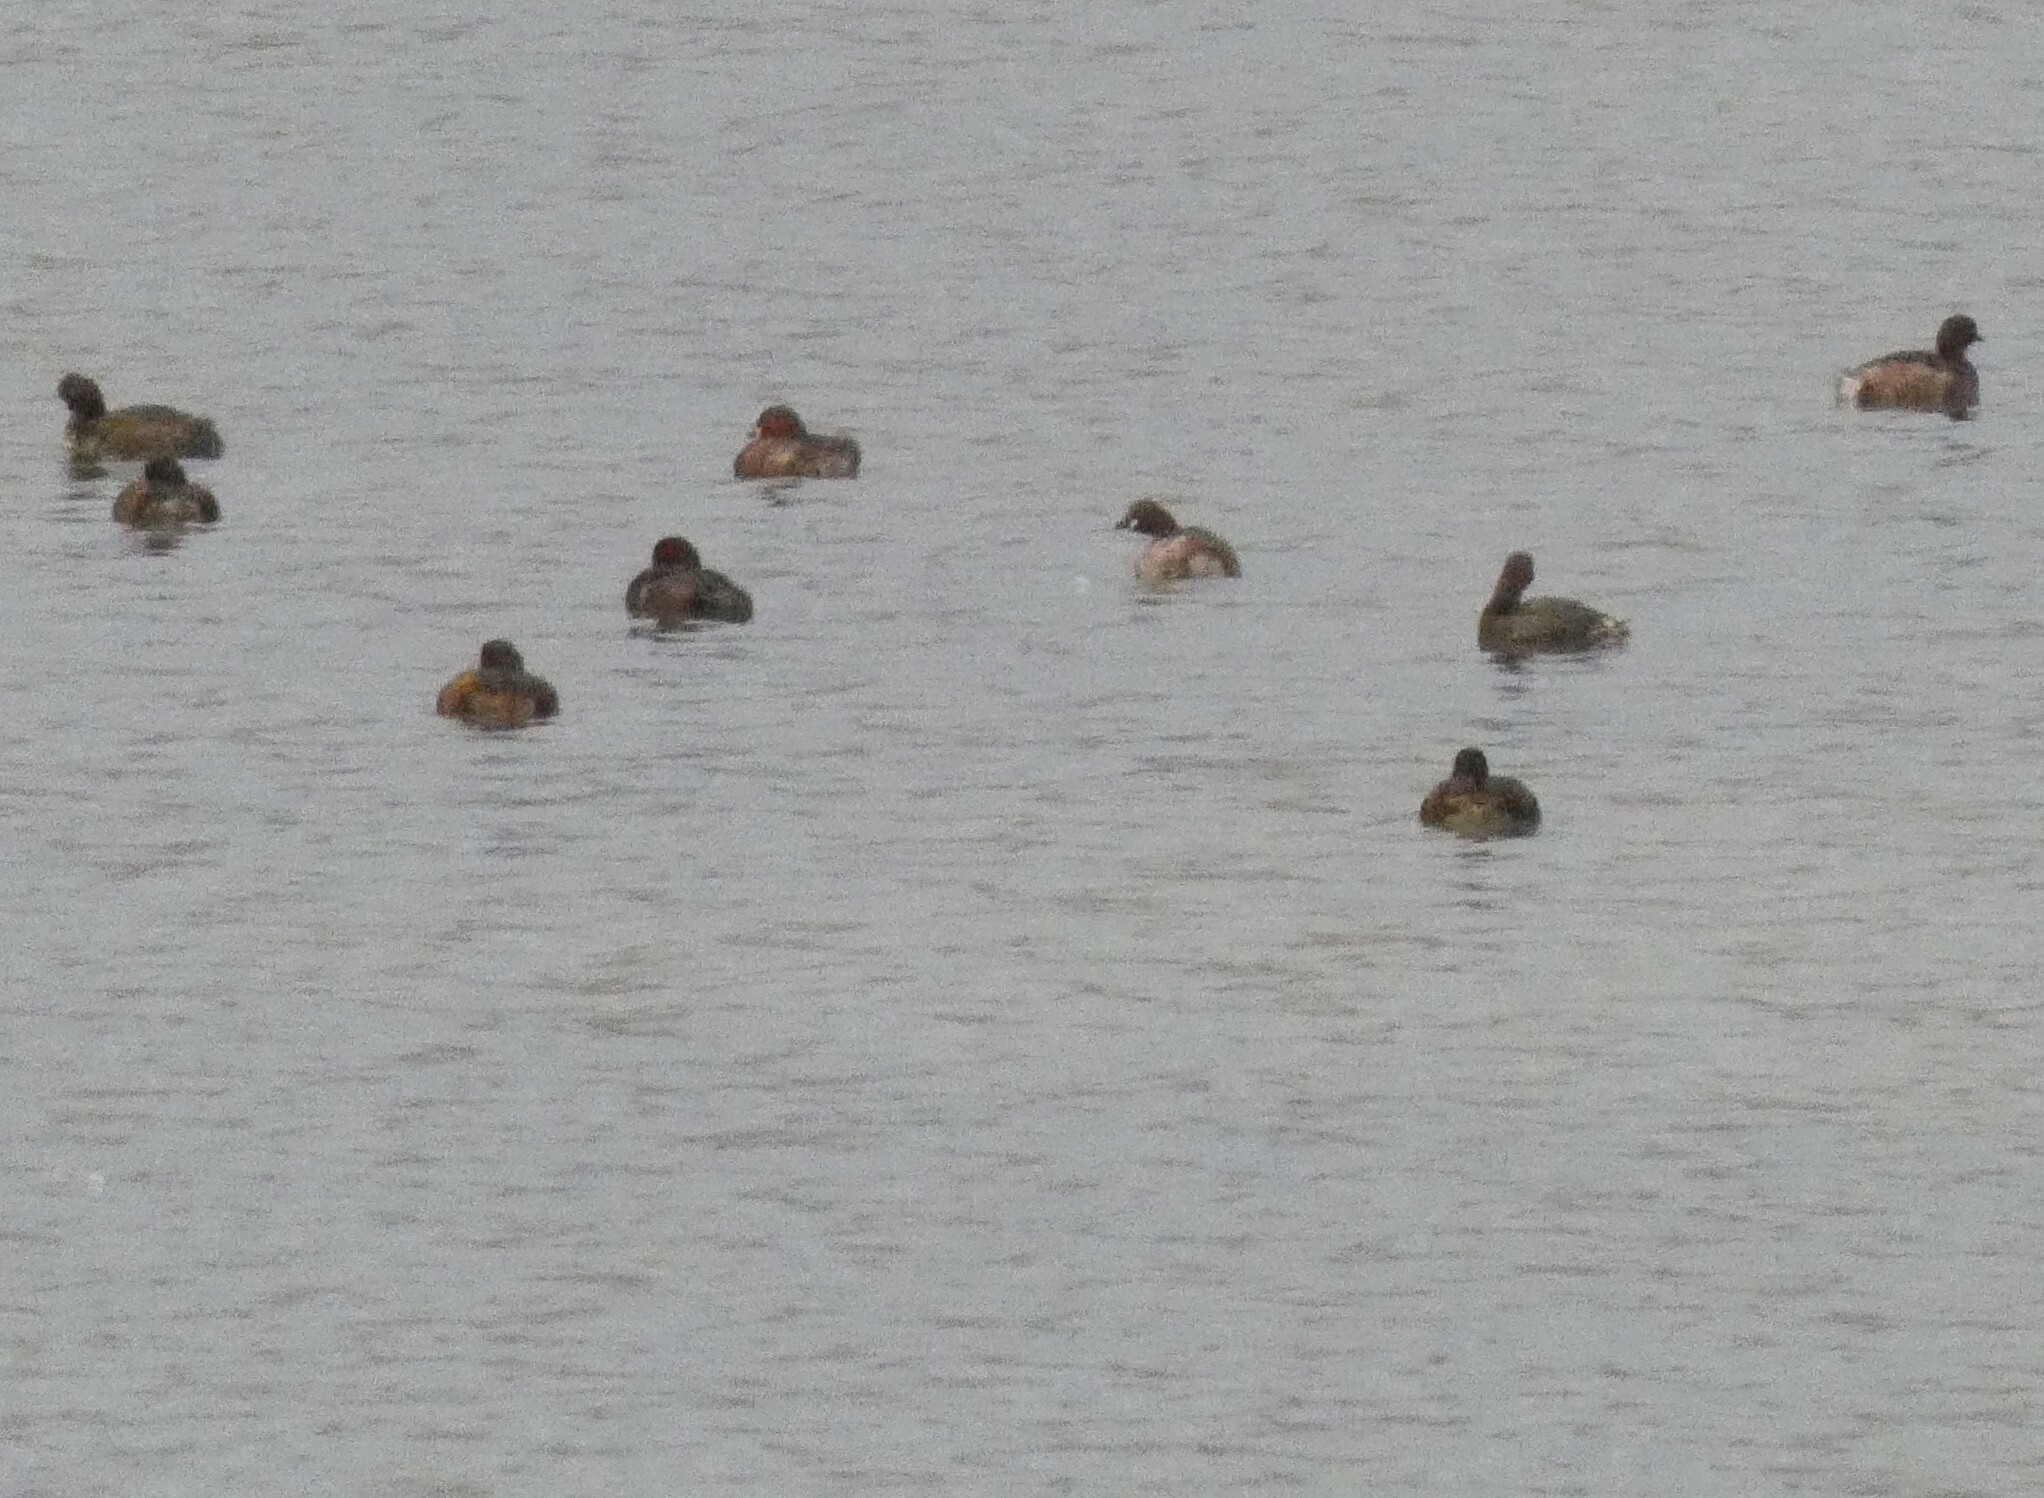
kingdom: Animalia
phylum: Chordata
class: Aves
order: Podicipediformes
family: Podicipedidae
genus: Tachybaptus
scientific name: Tachybaptus ruficollis
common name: Little grebe
